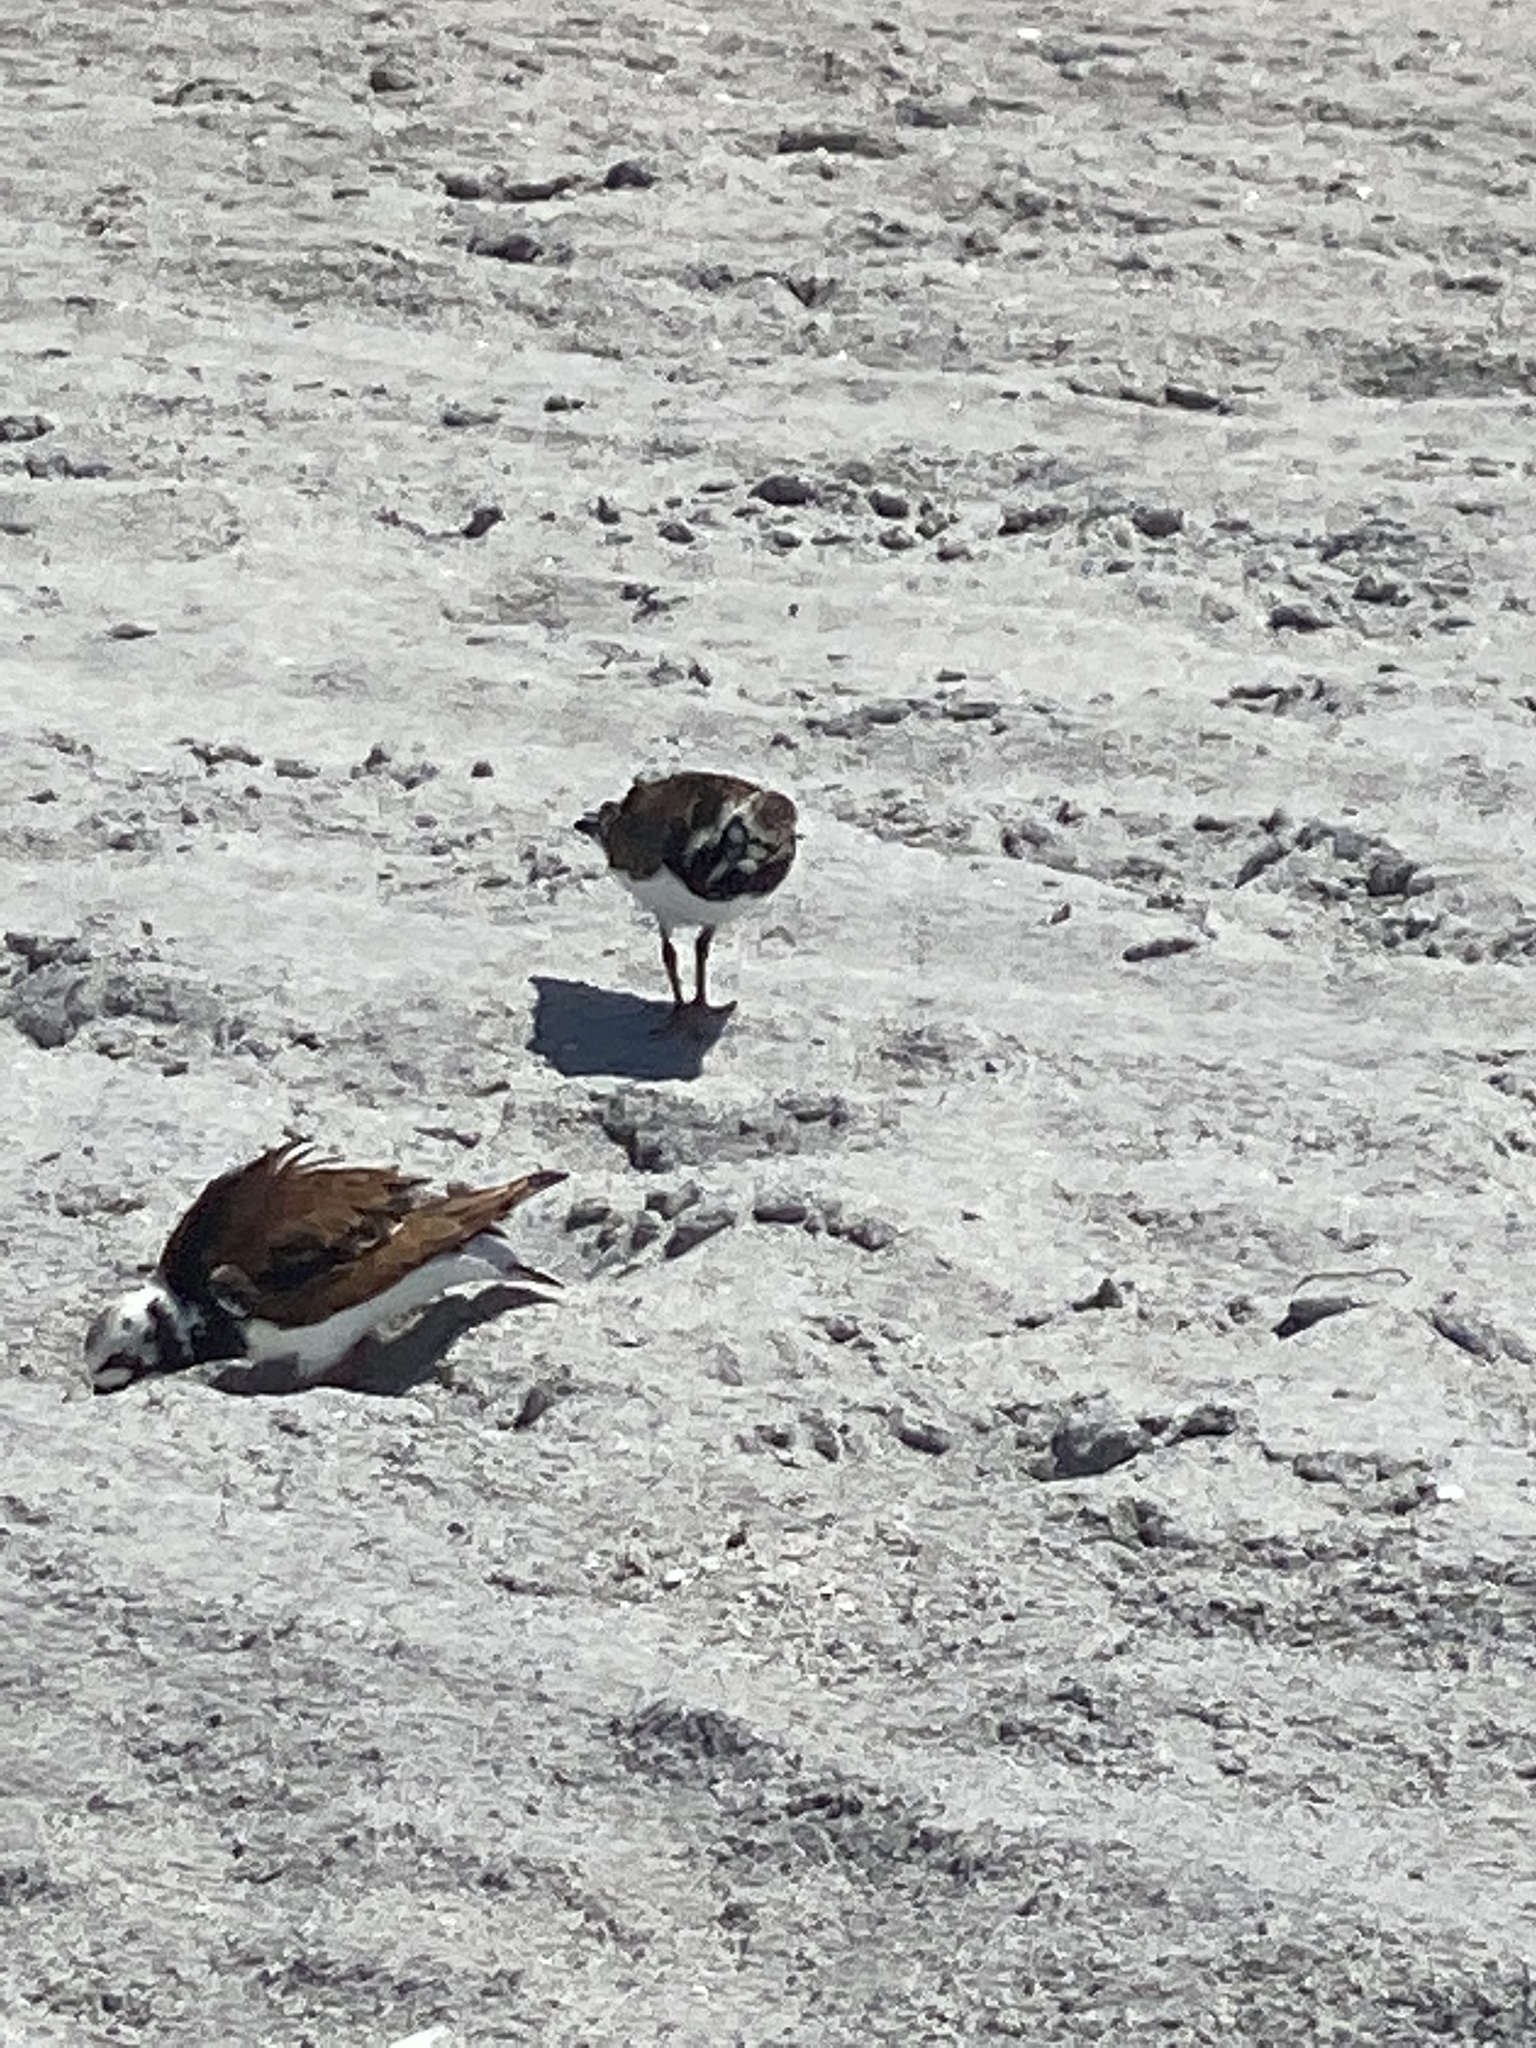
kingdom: Animalia
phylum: Chordata
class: Aves
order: Charadriiformes
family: Scolopacidae
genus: Arenaria
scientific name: Arenaria interpres
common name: Ruddy turnstone
